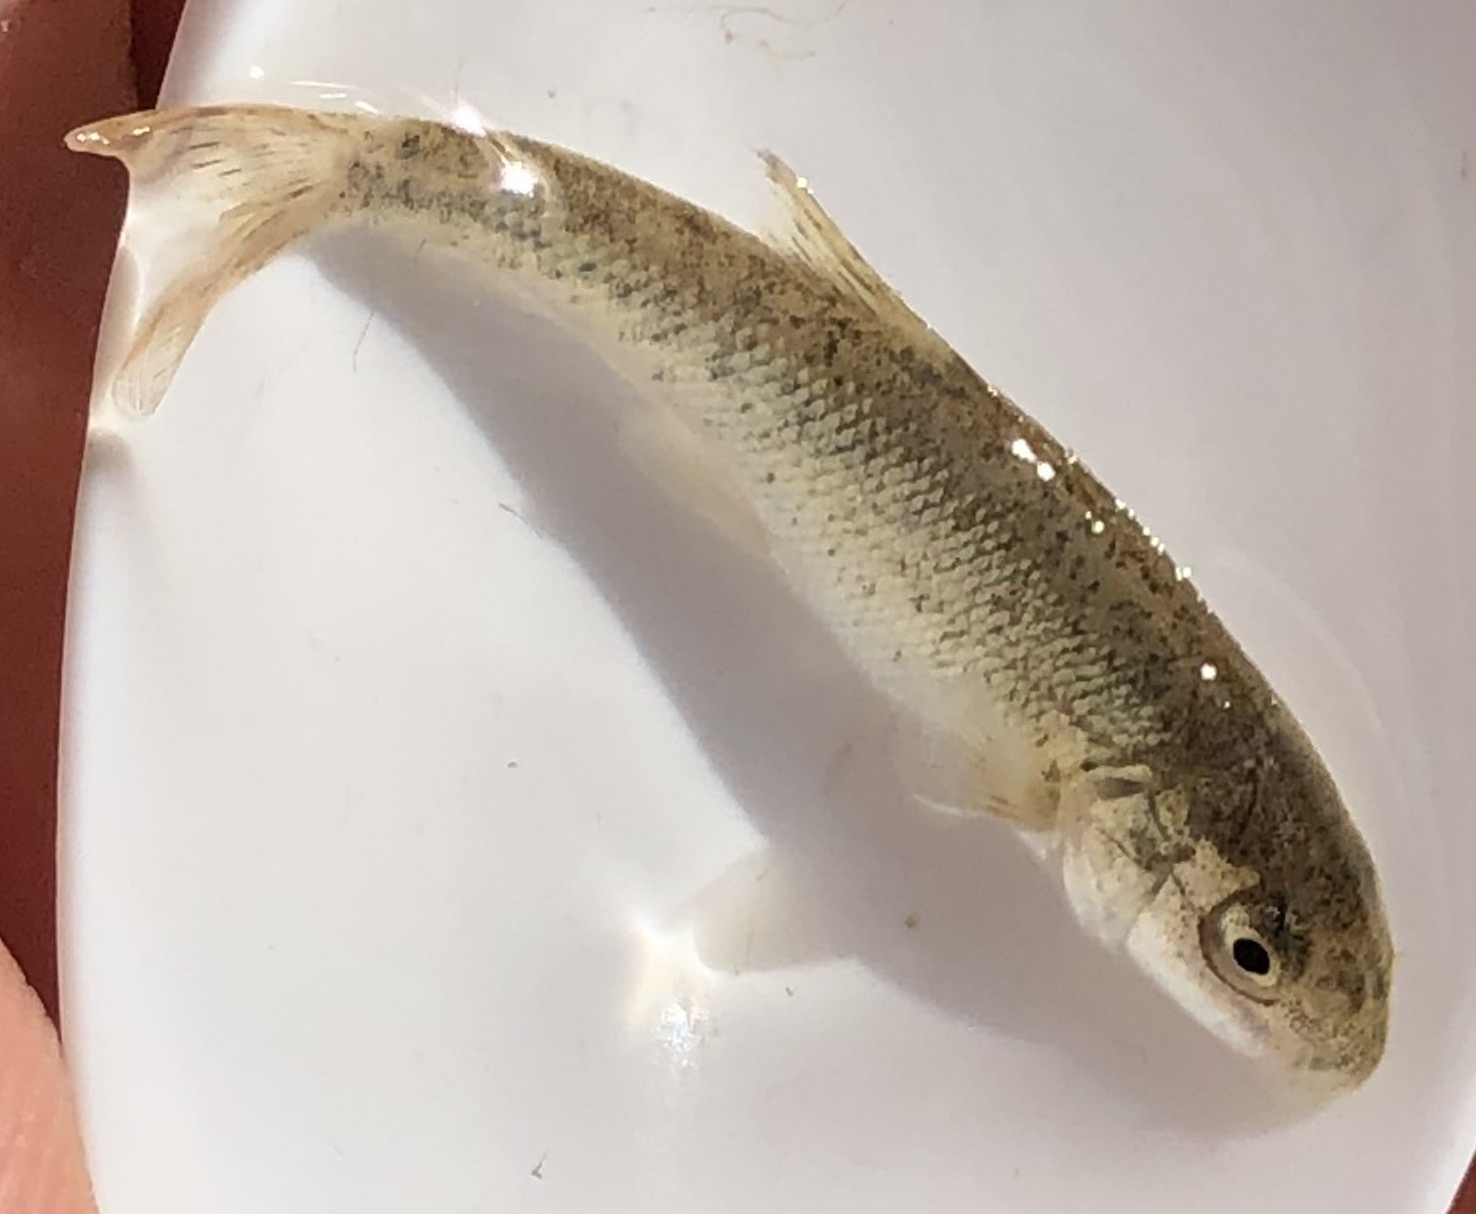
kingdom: Animalia
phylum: Chordata
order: Cypriniformes
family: Cyprinidae
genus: Barbus
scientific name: Barbus meridionalis
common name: Mediterranean barbel
